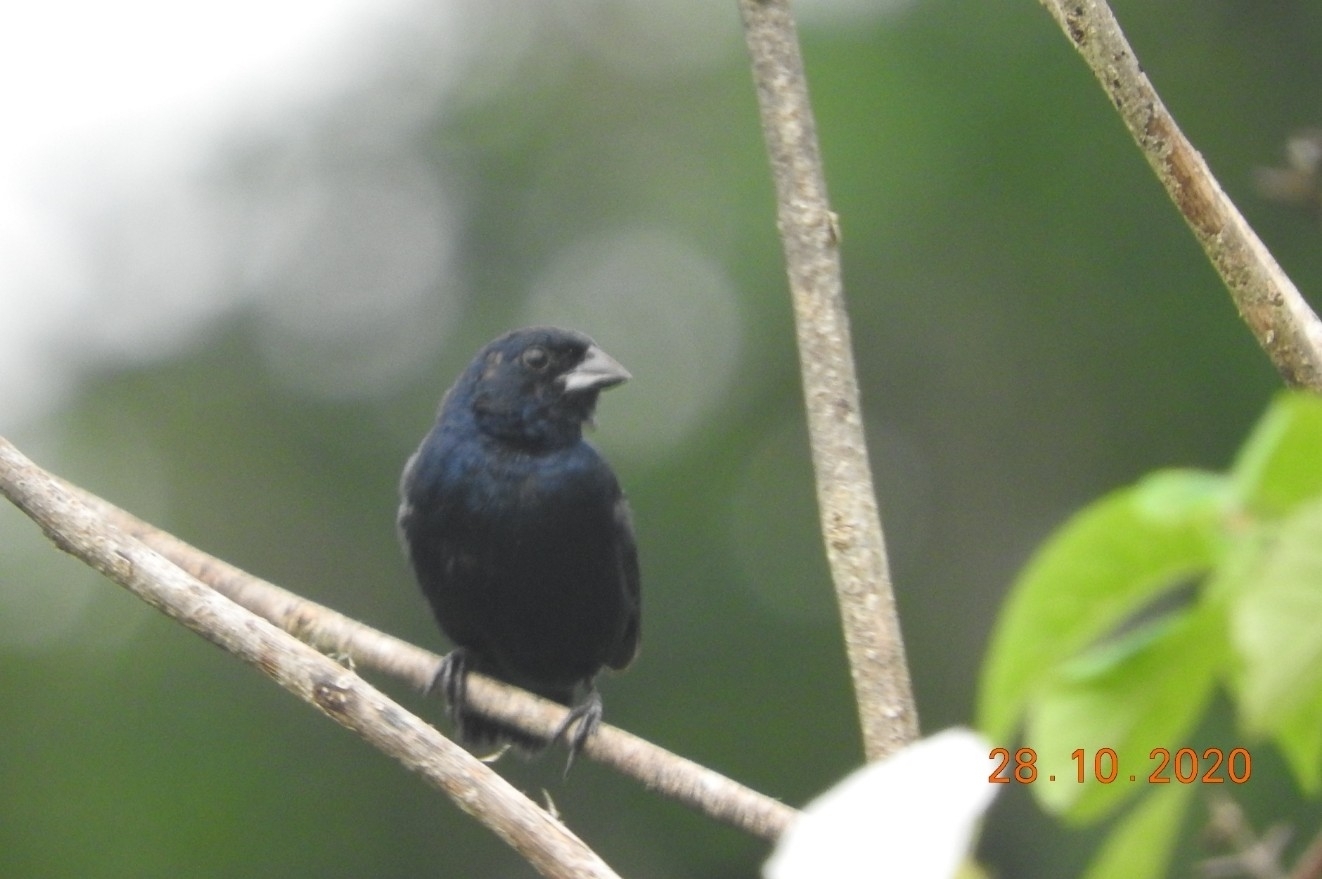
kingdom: Animalia
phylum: Chordata
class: Aves
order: Passeriformes
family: Thraupidae
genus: Volatinia
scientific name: Volatinia jacarina
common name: Blue-black grassquit
